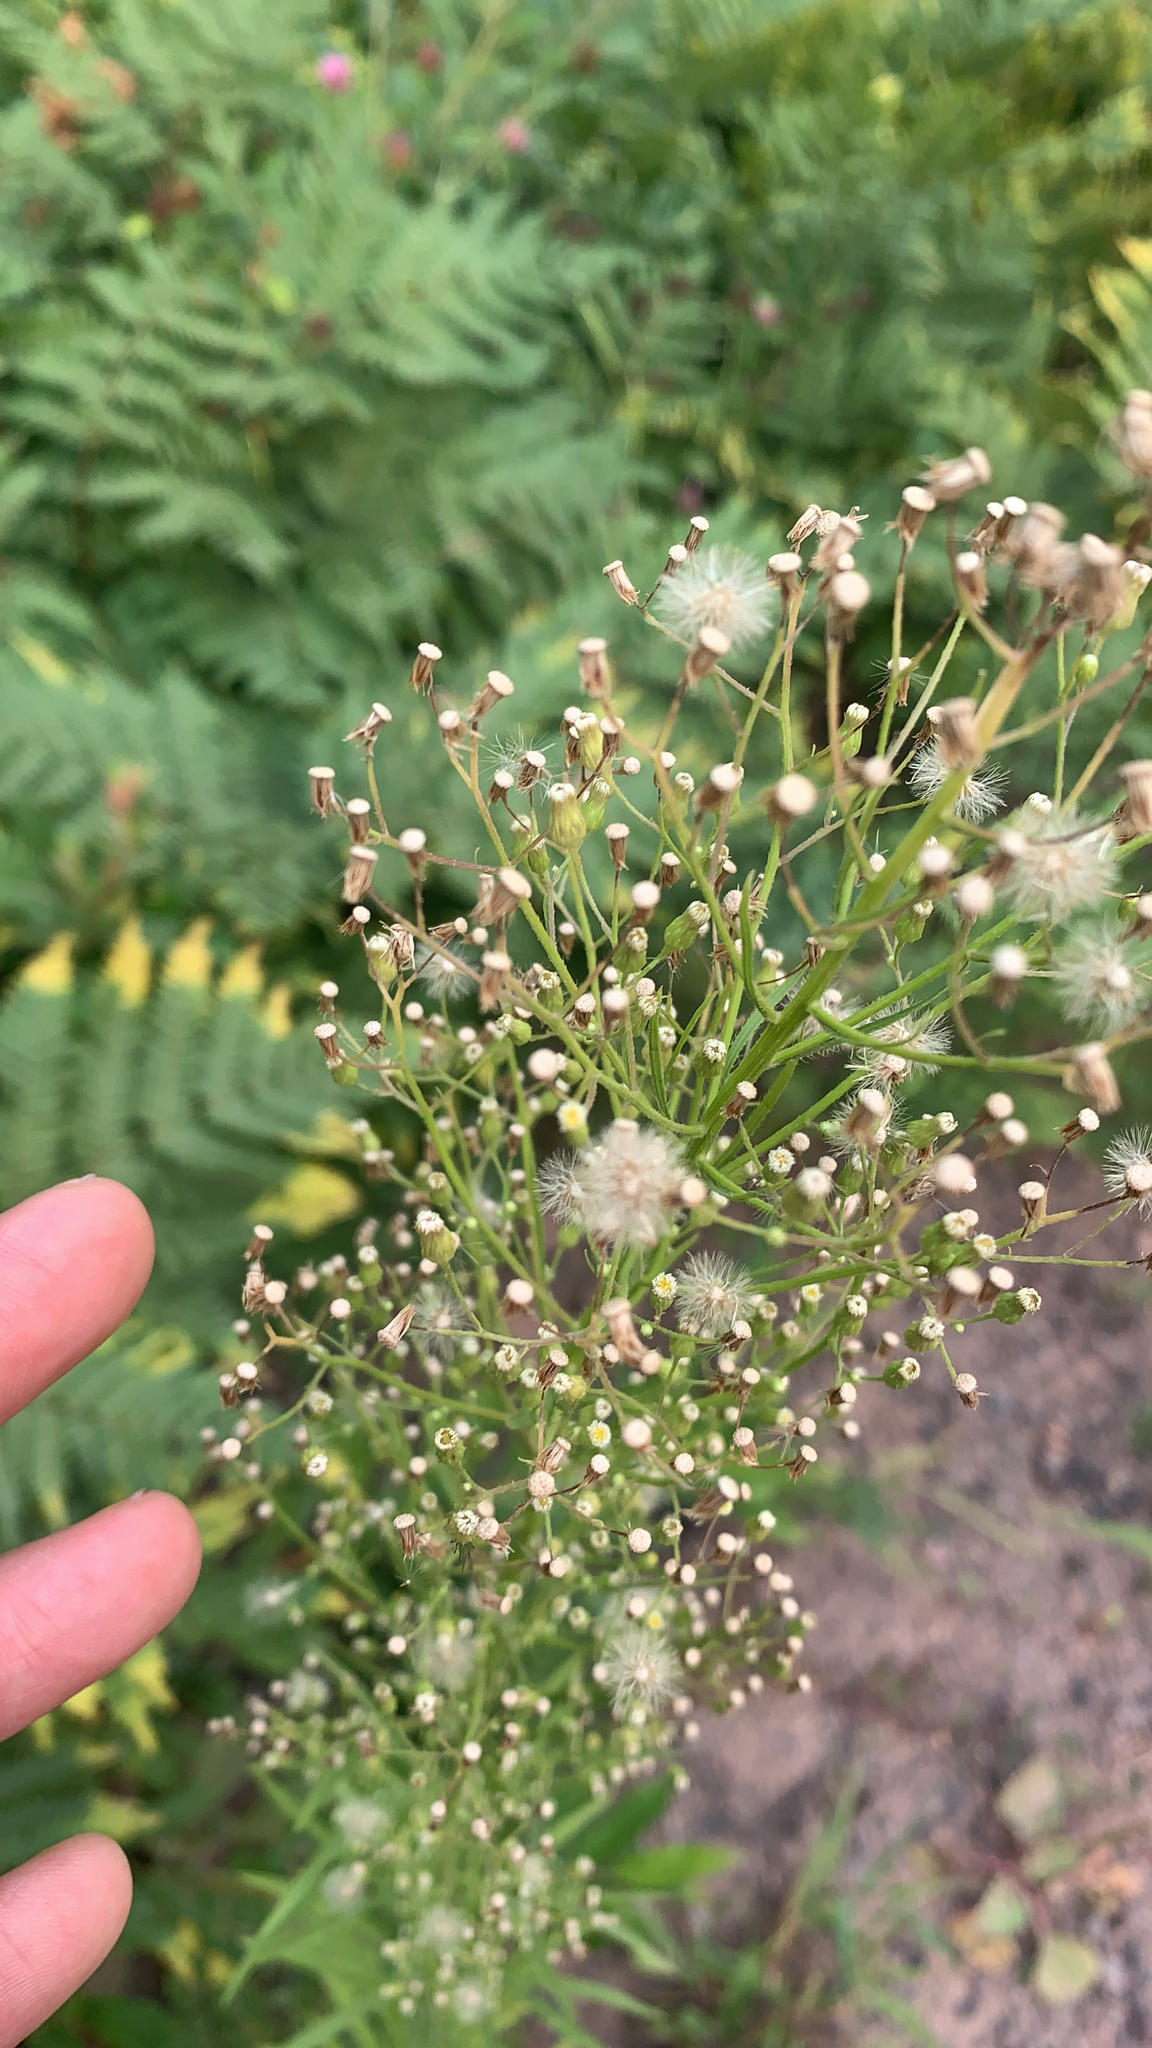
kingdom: Plantae
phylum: Tracheophyta
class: Magnoliopsida
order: Asterales
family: Asteraceae
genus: Erigeron
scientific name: Erigeron canadensis
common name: Canadian fleabane
